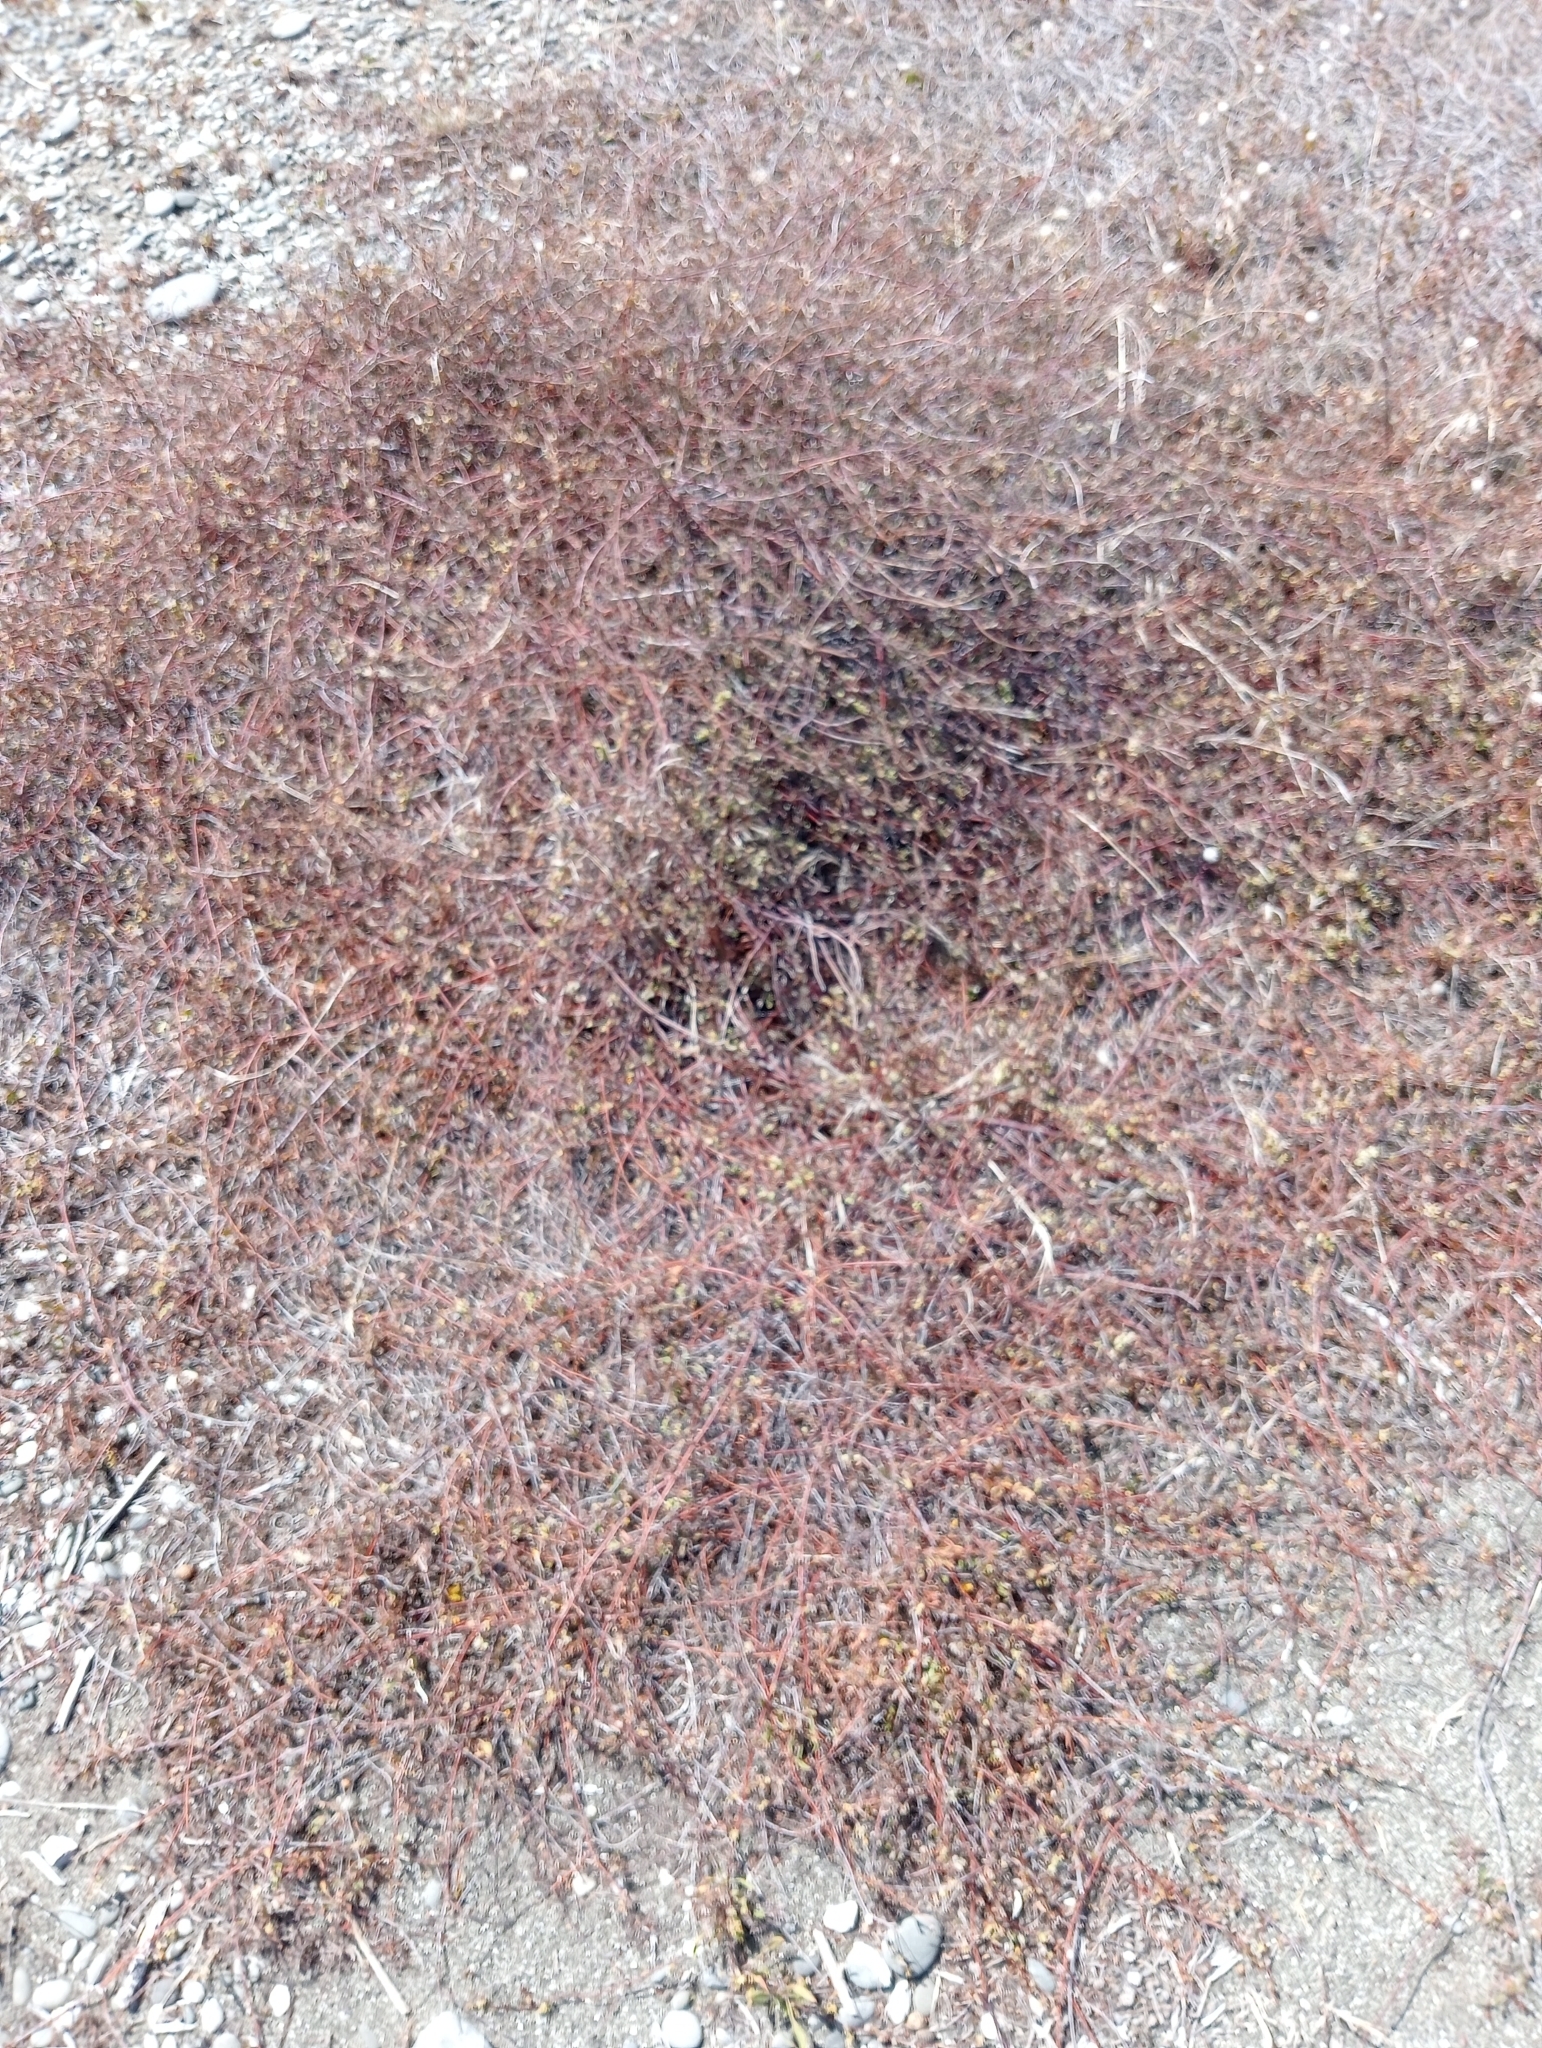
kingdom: Plantae
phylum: Tracheophyta
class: Magnoliopsida
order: Caryophyllales
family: Polygonaceae
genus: Muehlenbeckia
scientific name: Muehlenbeckia
